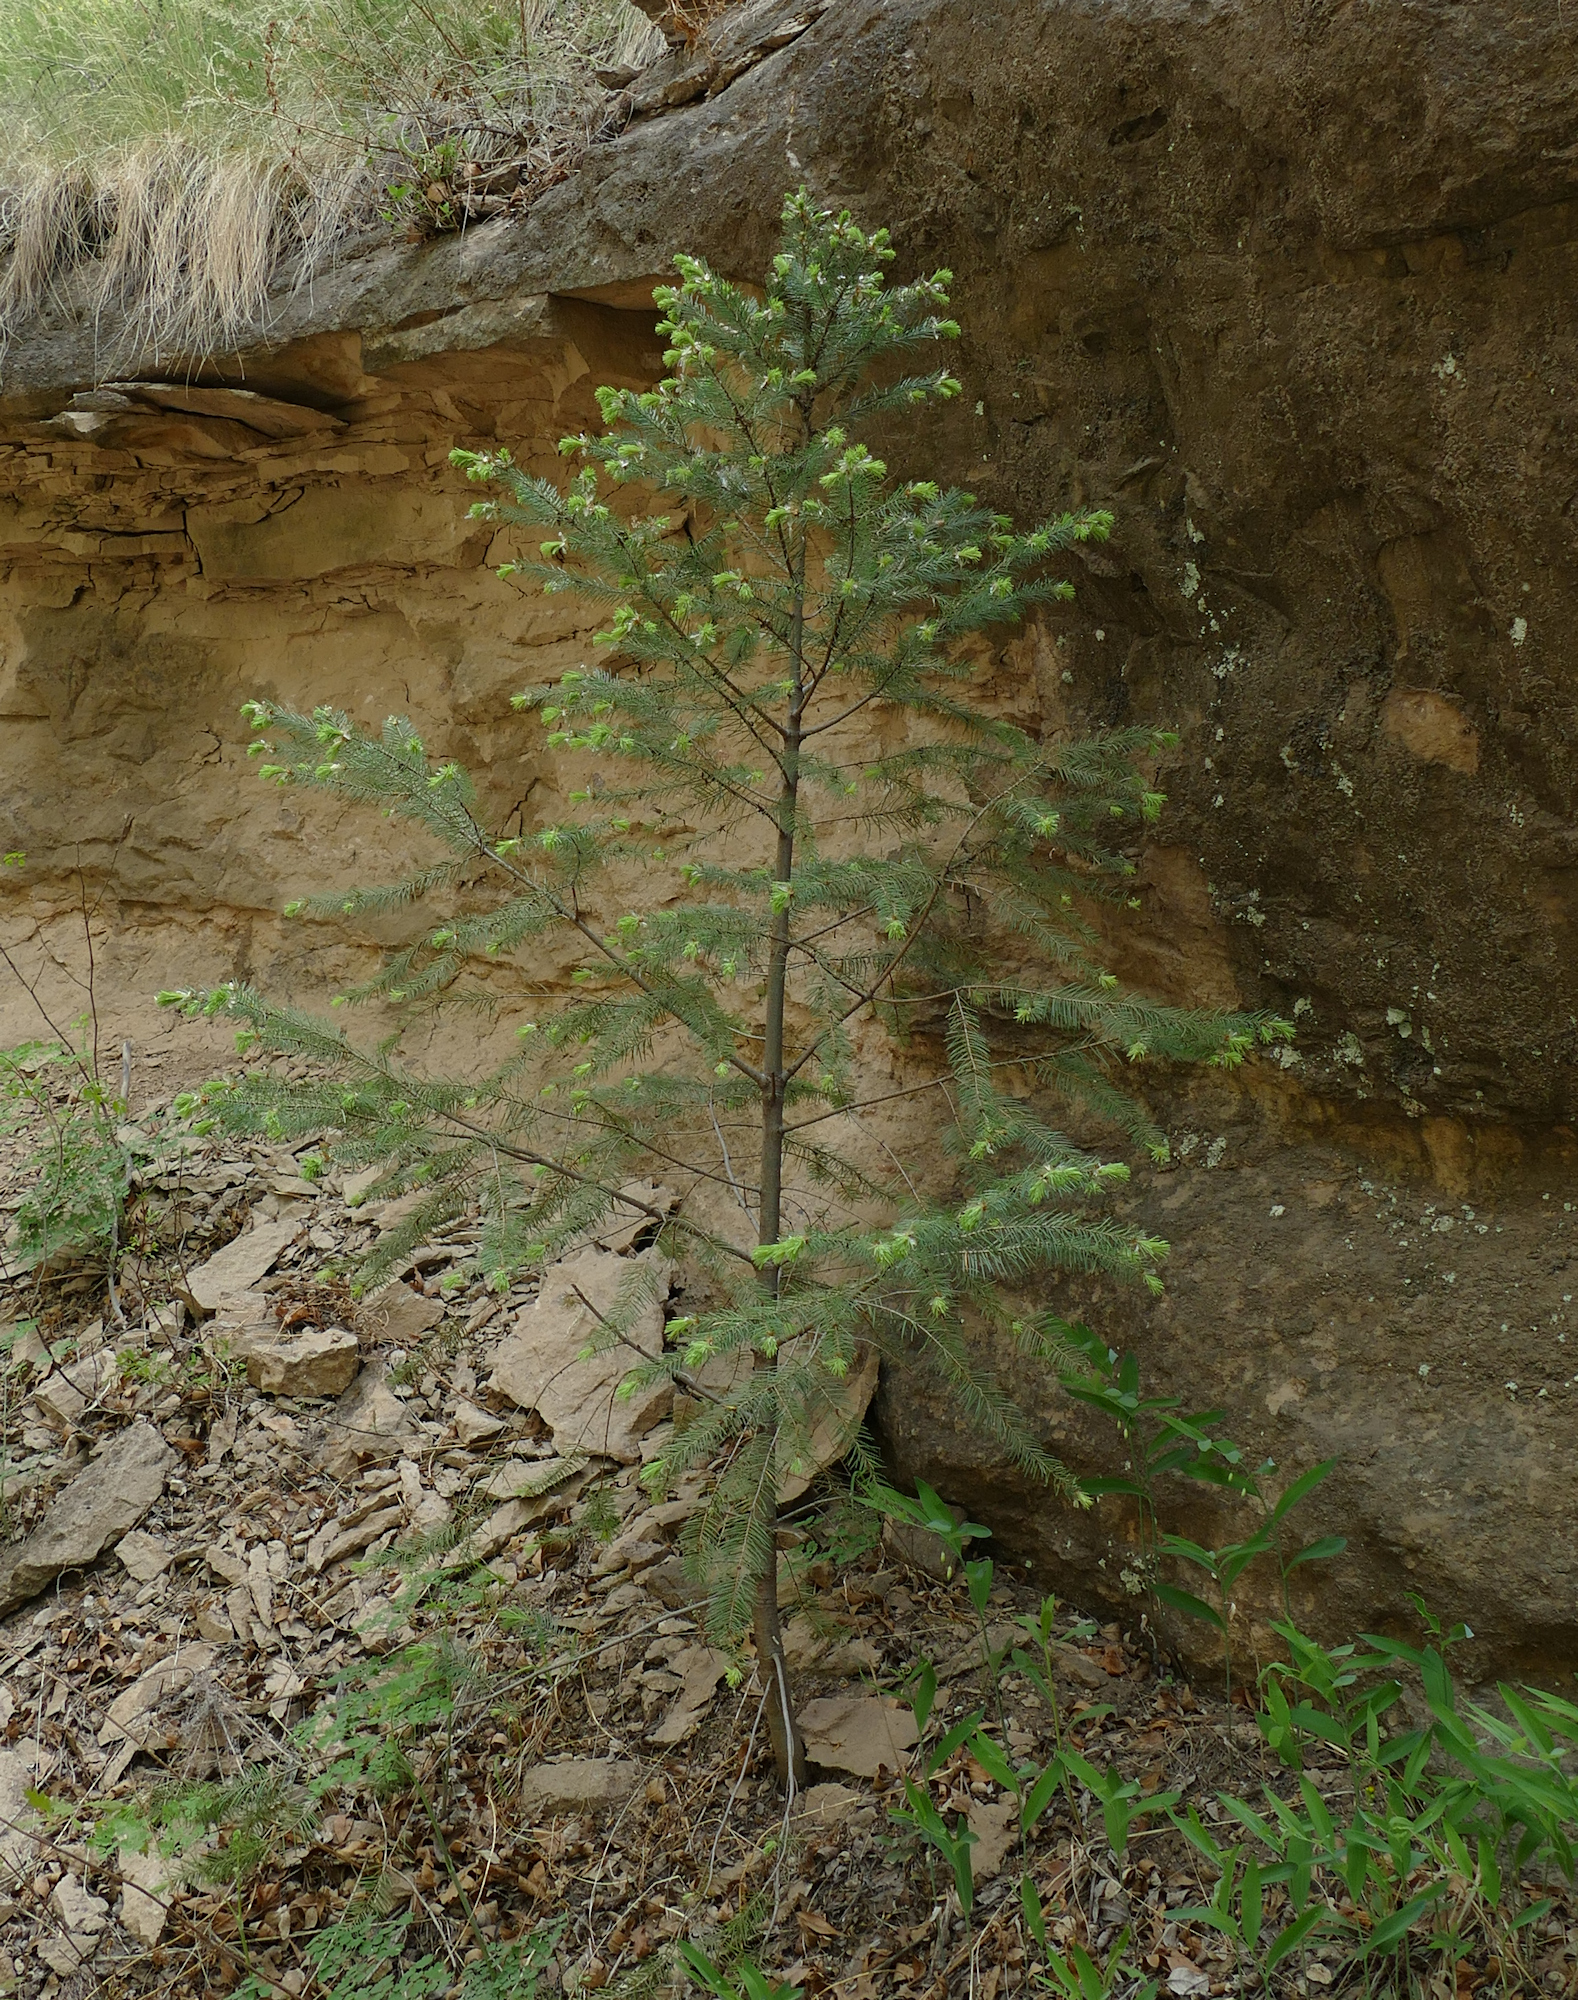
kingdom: Plantae
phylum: Tracheophyta
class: Pinopsida
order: Pinales
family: Pinaceae
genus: Pseudotsuga
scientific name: Pseudotsuga menziesii
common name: Douglas fir
